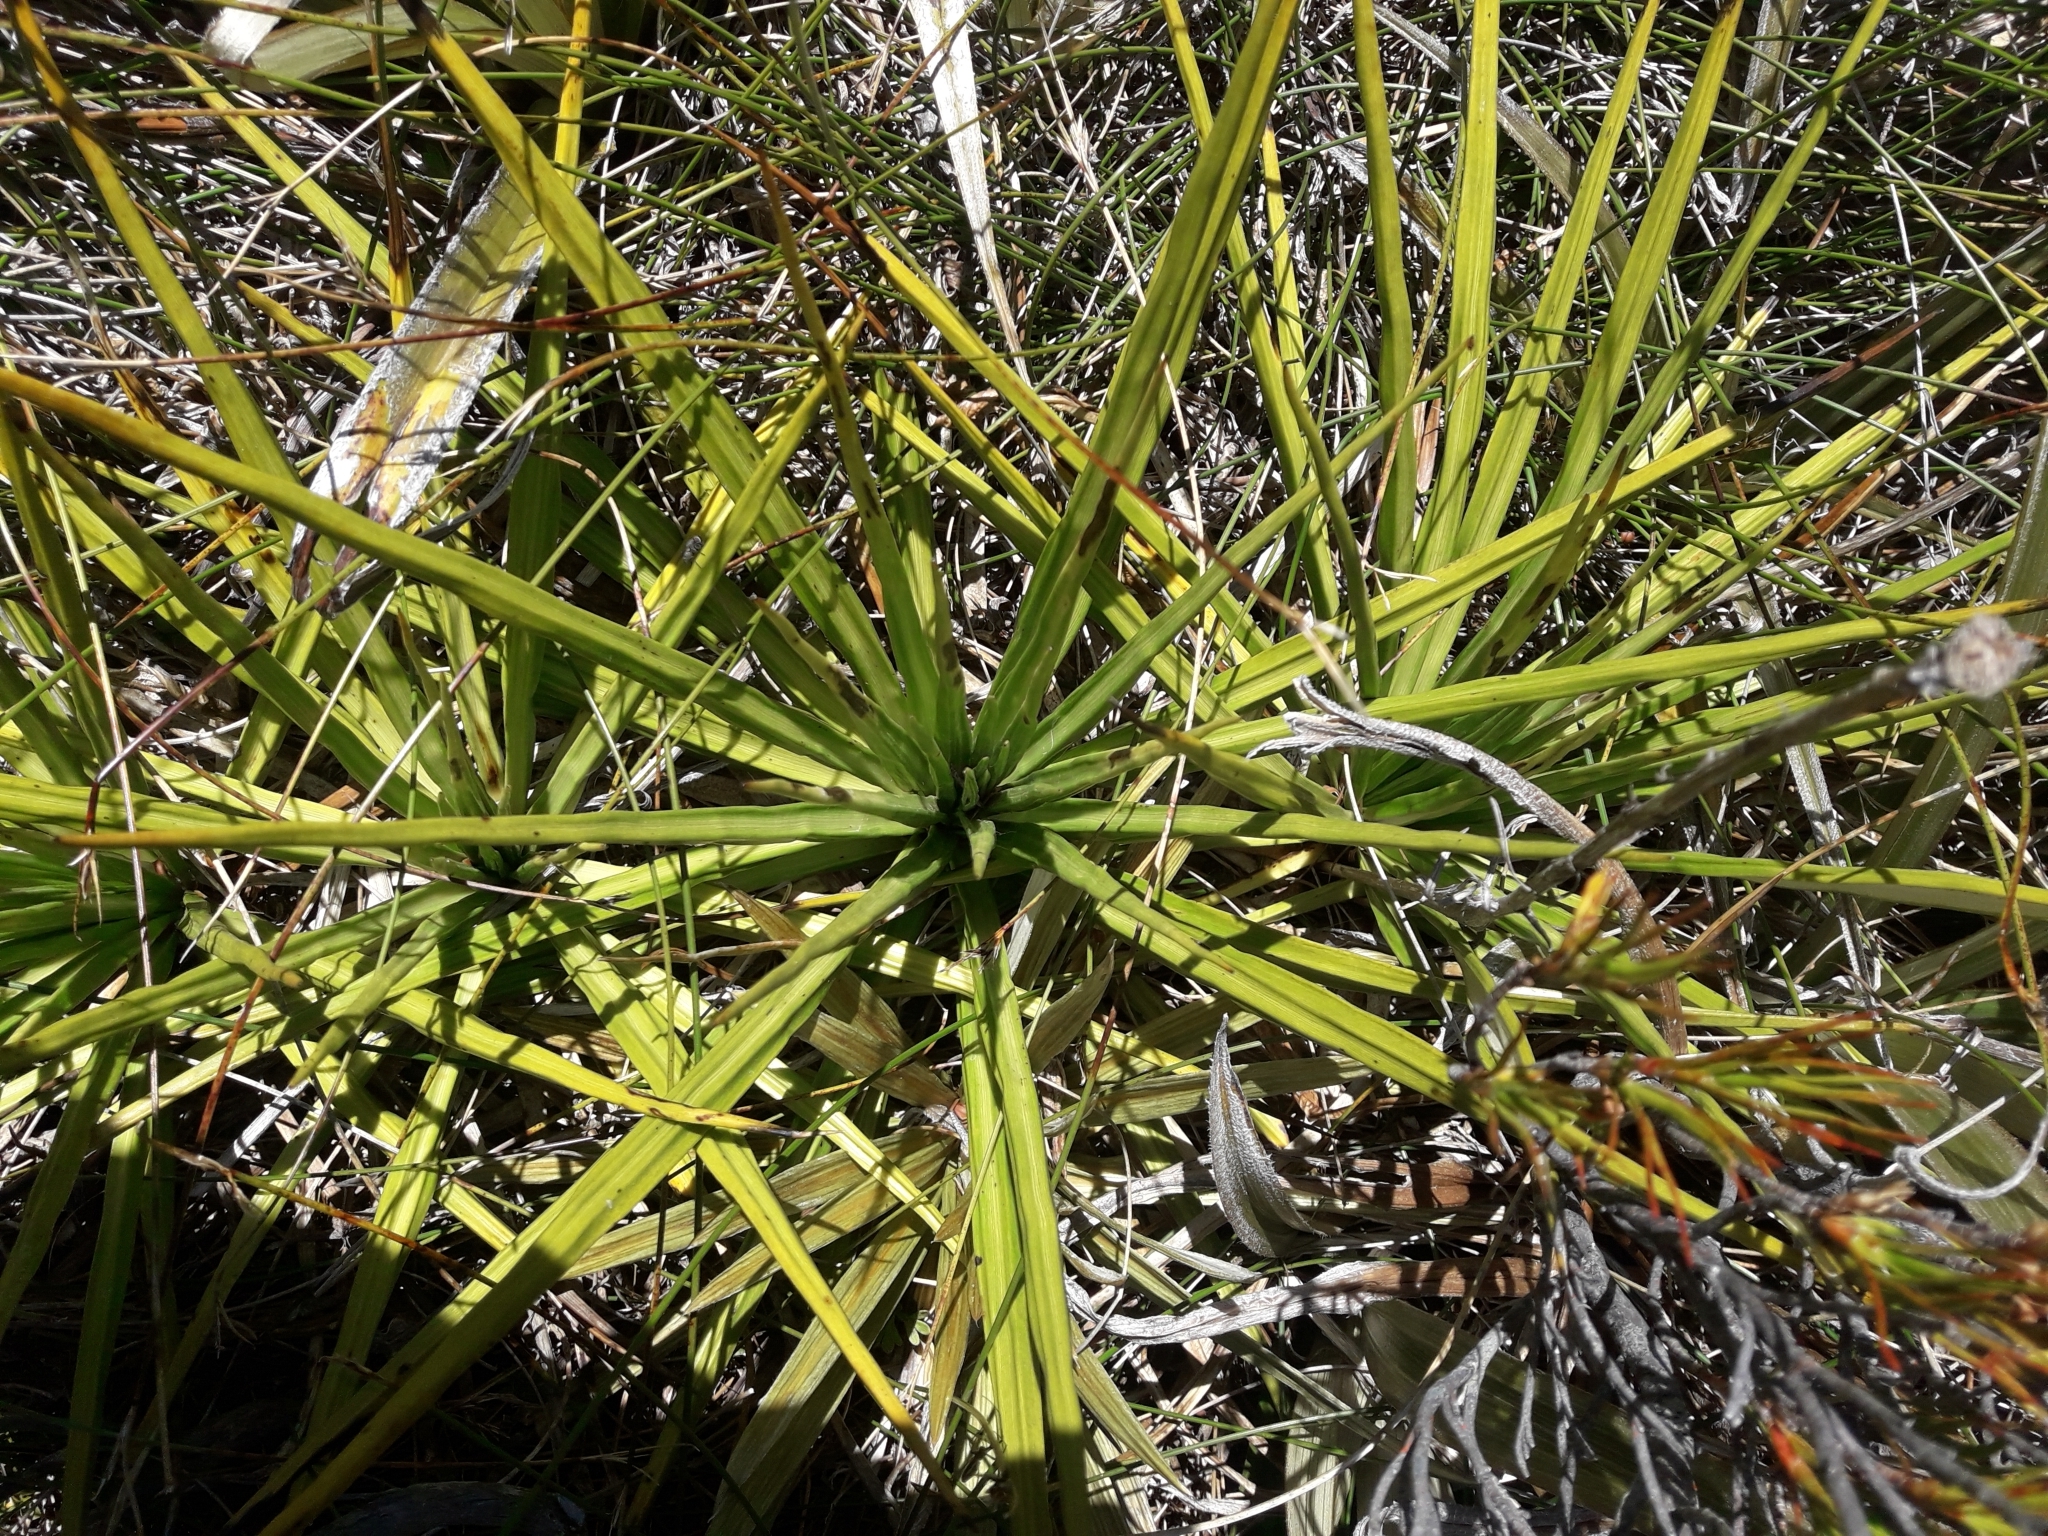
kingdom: Plantae
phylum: Tracheophyta
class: Magnoliopsida
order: Asterales
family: Asteraceae
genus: Celmisia
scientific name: Celmisia petriei
